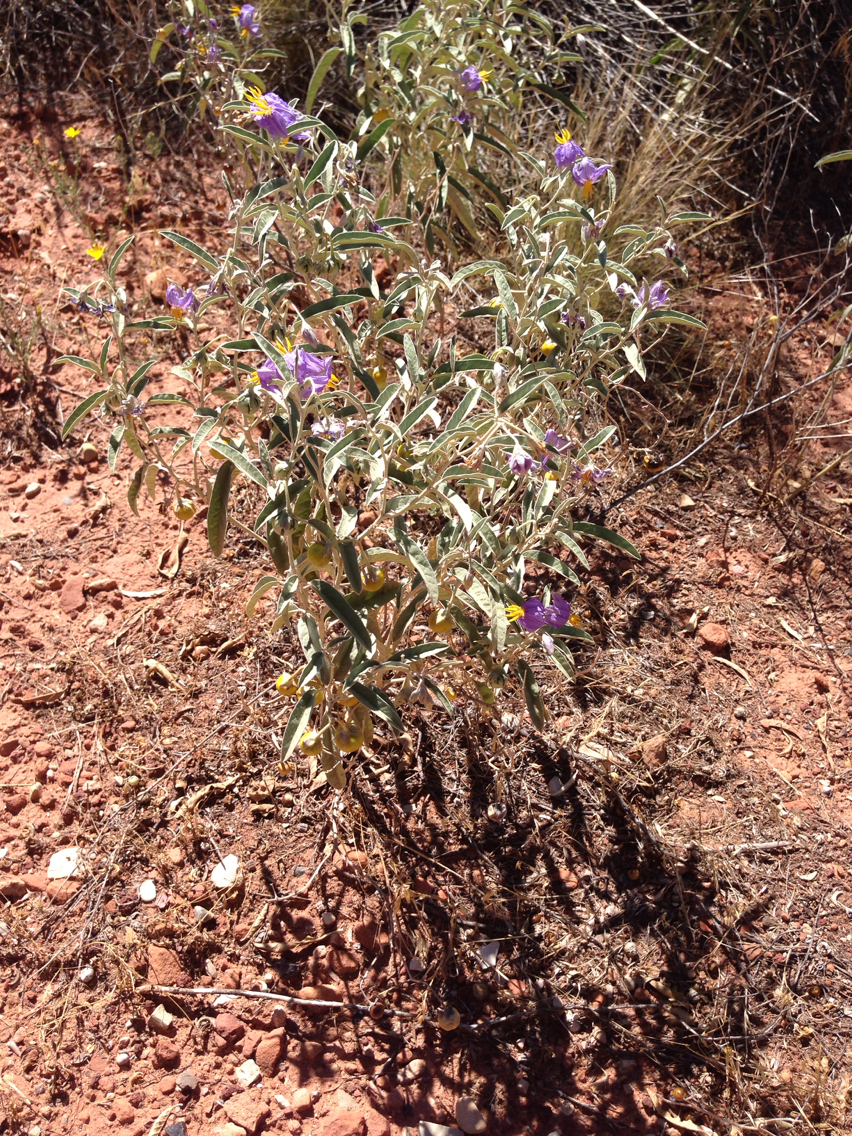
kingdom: Plantae
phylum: Tracheophyta
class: Magnoliopsida
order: Solanales
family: Solanaceae
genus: Solanum
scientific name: Solanum elaeagnifolium
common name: Silverleaf nightshade
